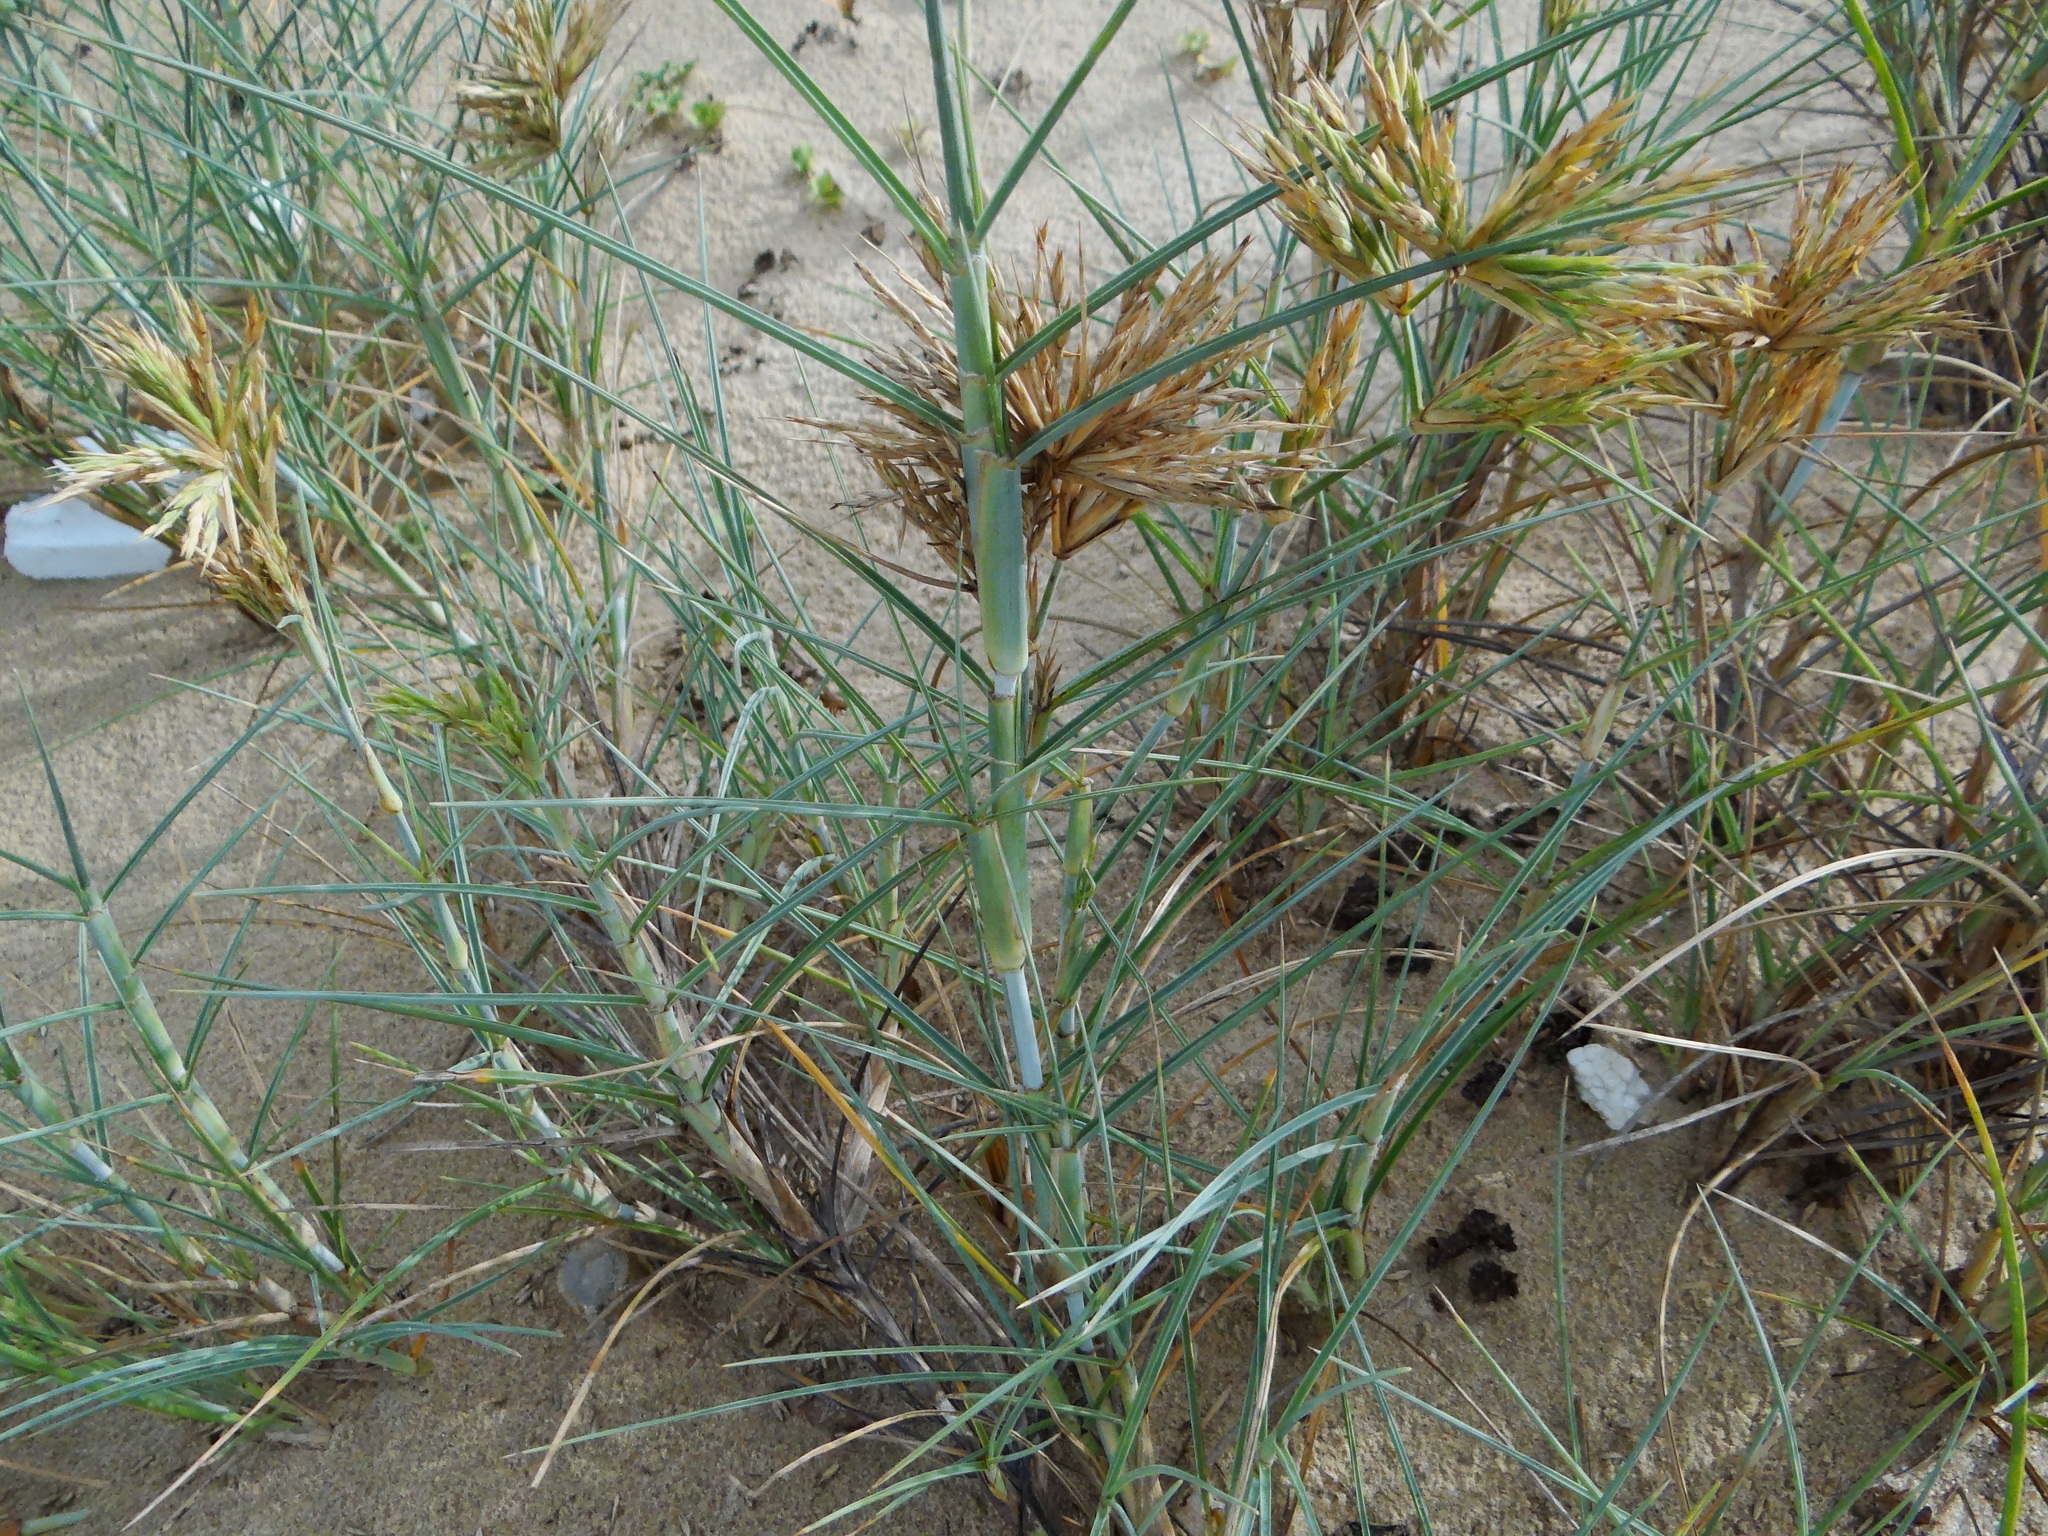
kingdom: Plantae
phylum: Tracheophyta
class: Liliopsida
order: Poales
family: Poaceae
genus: Spinifex
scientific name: Spinifex littoreus
